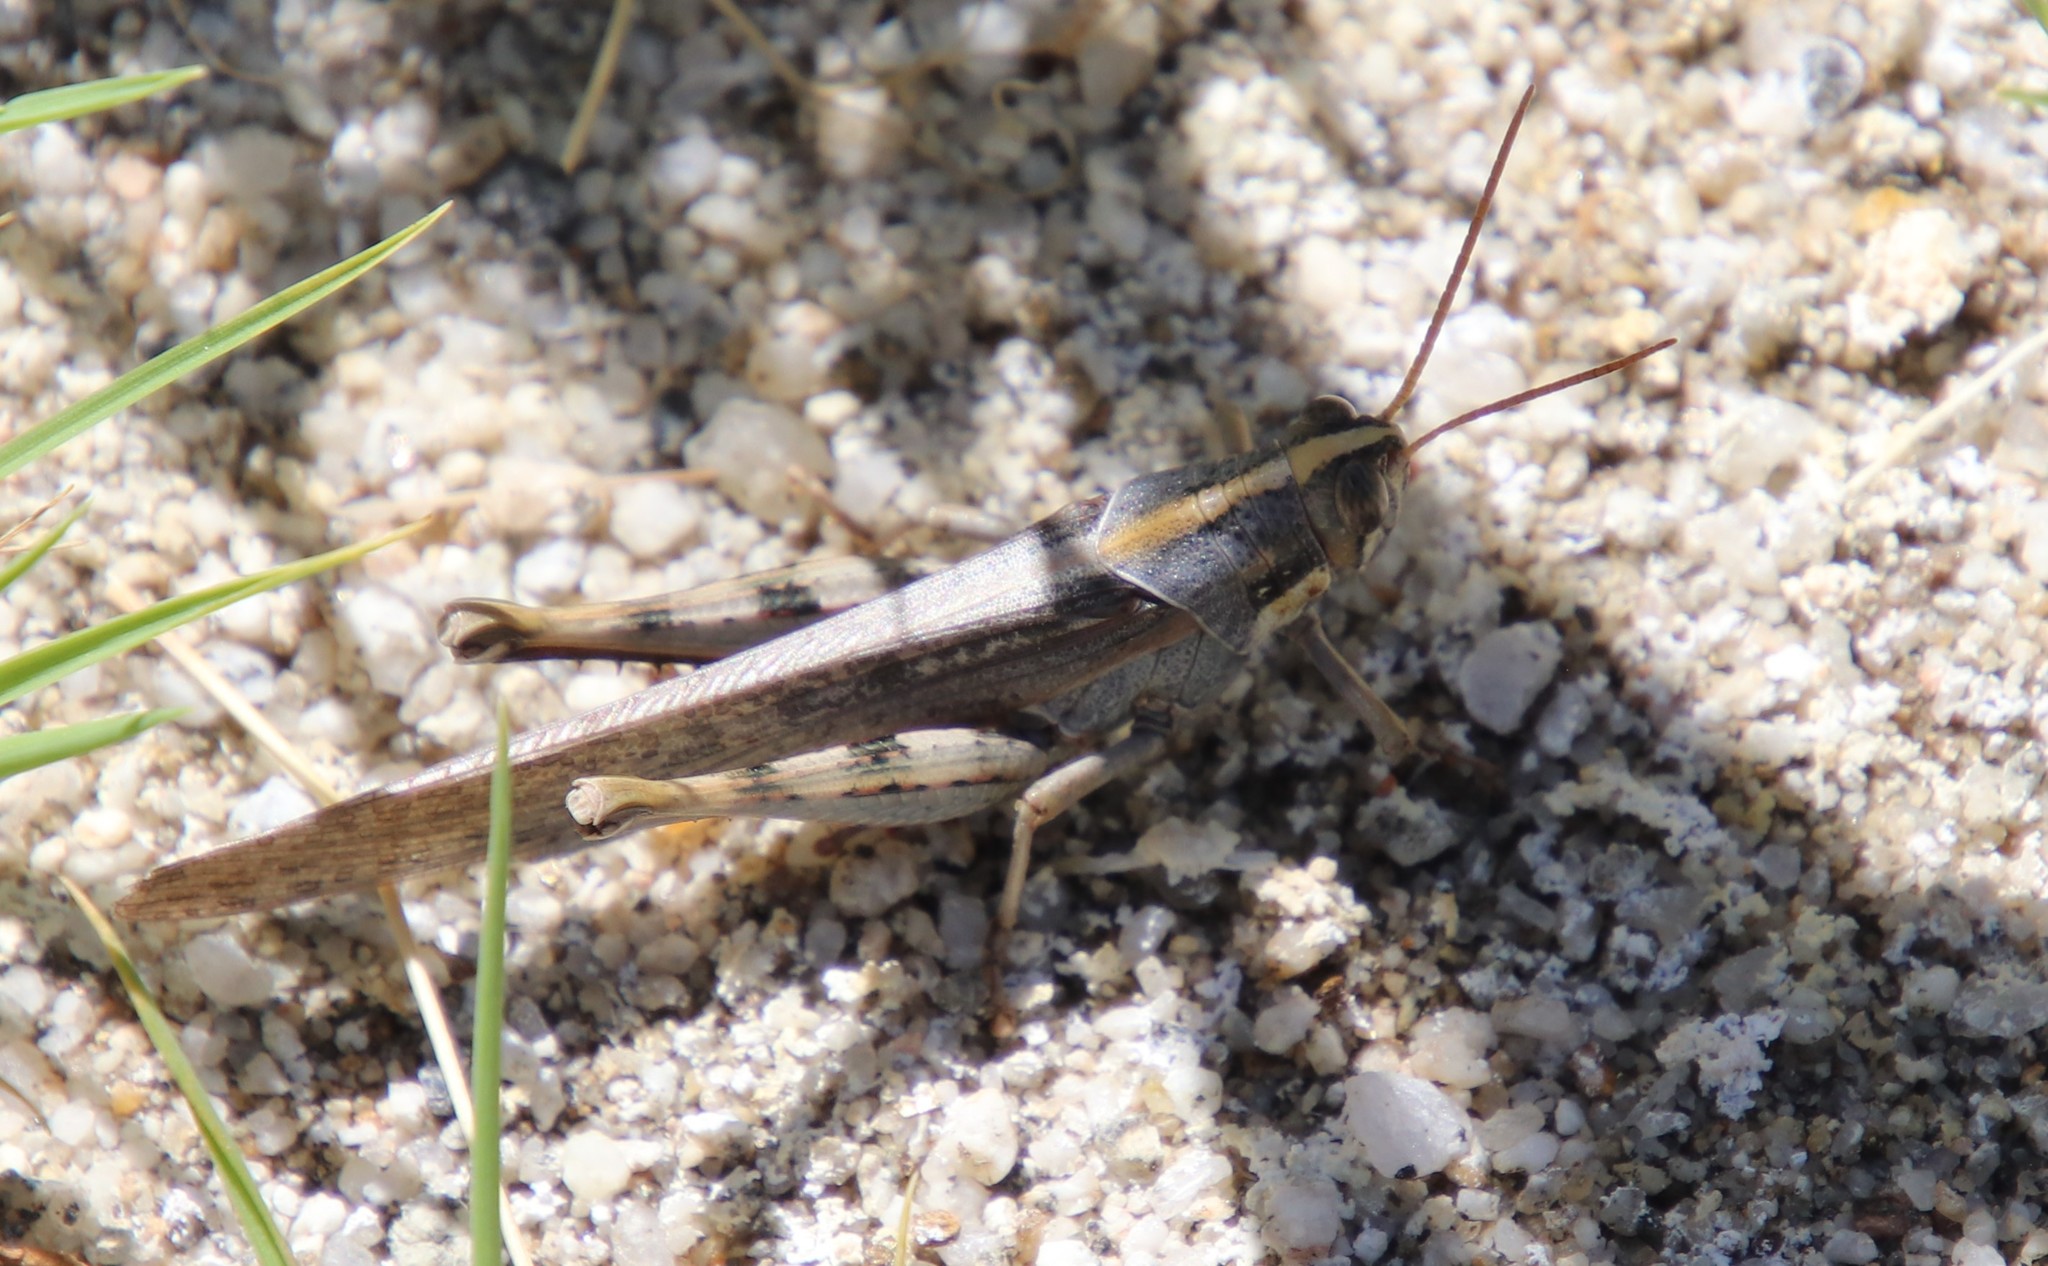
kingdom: Animalia
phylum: Arthropoda
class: Insecta
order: Orthoptera
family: Acrididae
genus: Schistocerca
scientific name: Schistocerca nitens
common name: Vagrant grasshopper
